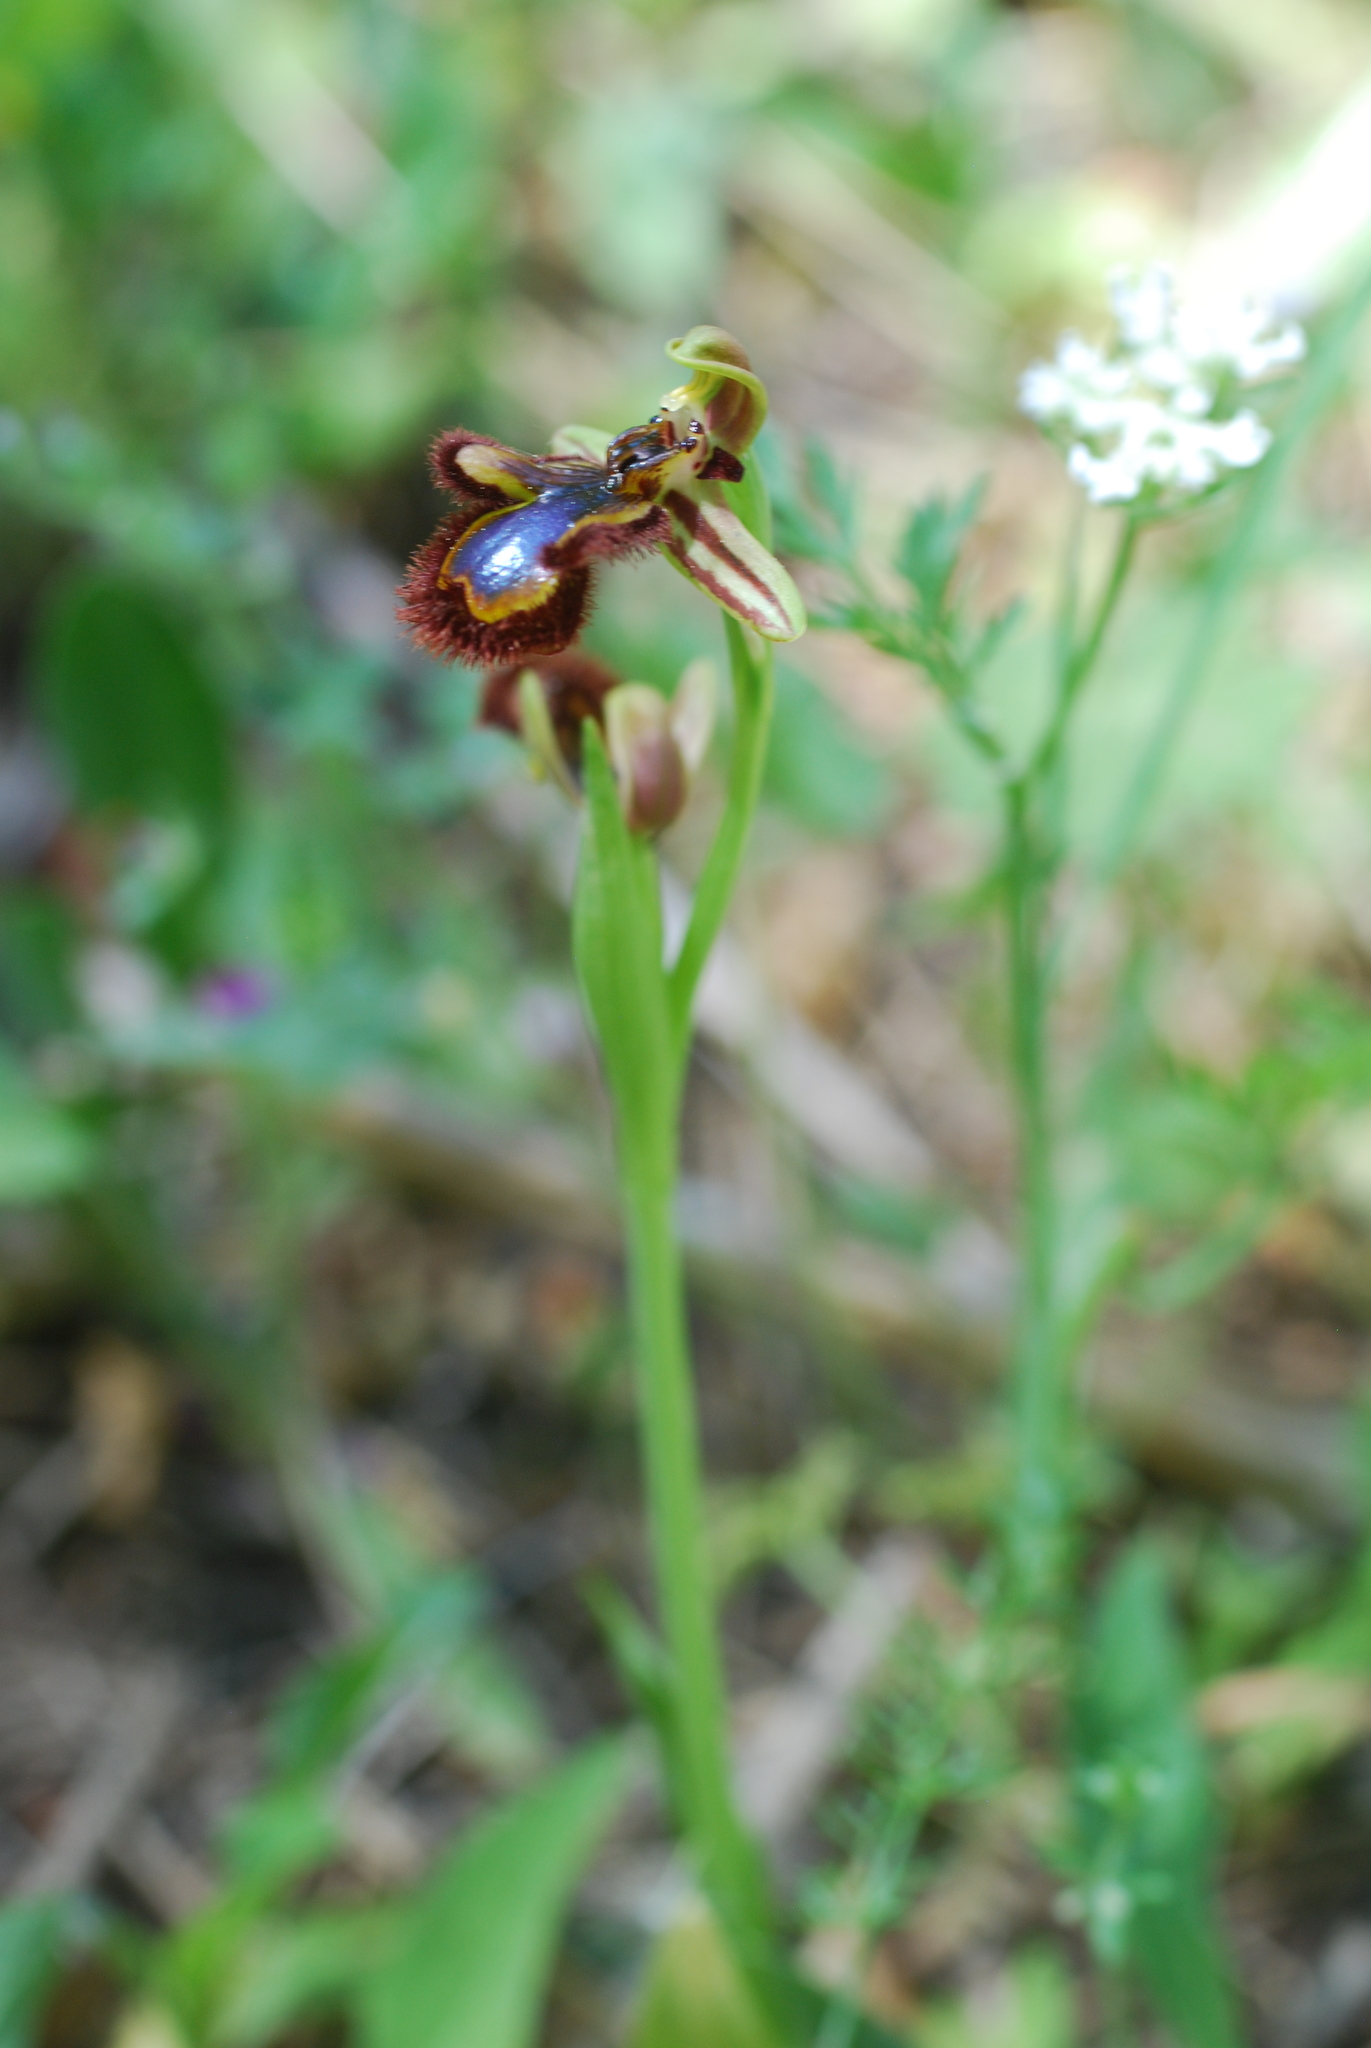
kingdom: Plantae
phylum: Tracheophyta
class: Liliopsida
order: Asparagales
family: Orchidaceae
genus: Ophrys
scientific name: Ophrys speculum
